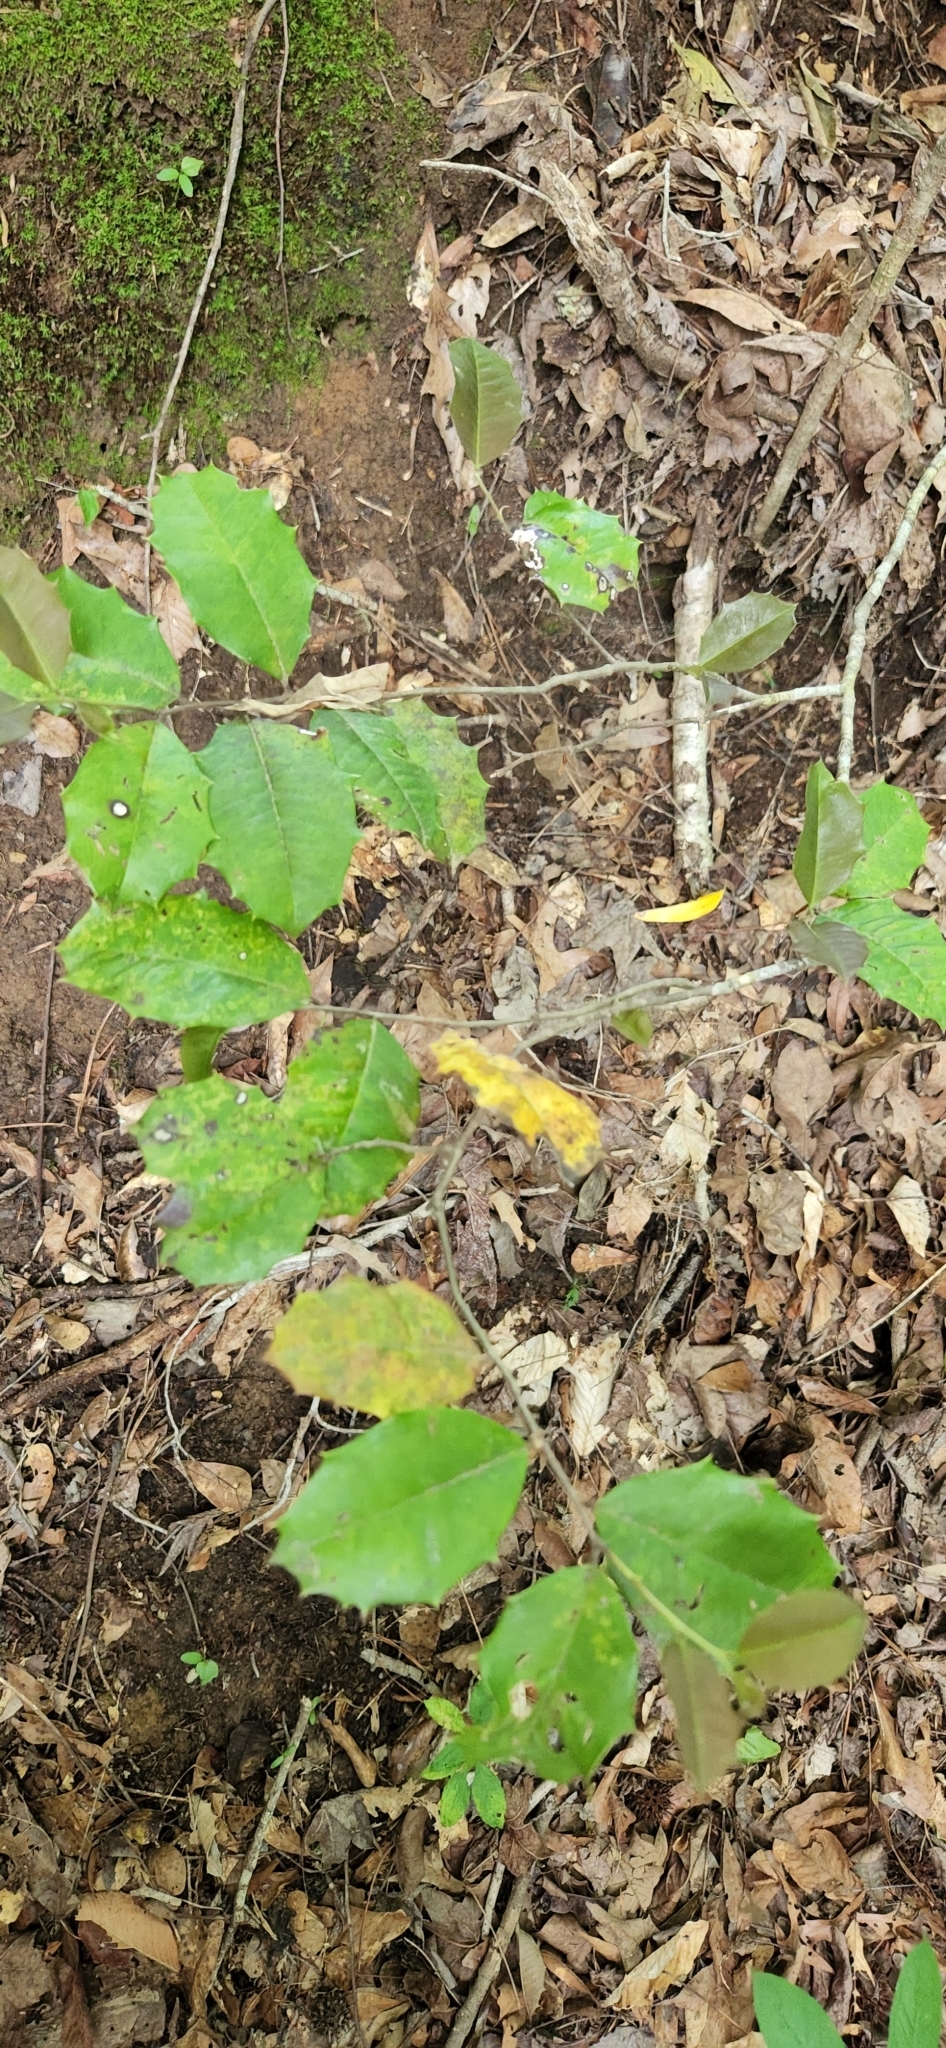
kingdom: Plantae
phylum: Tracheophyta
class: Magnoliopsida
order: Aquifoliales
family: Aquifoliaceae
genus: Ilex
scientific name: Ilex opaca
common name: American holly
